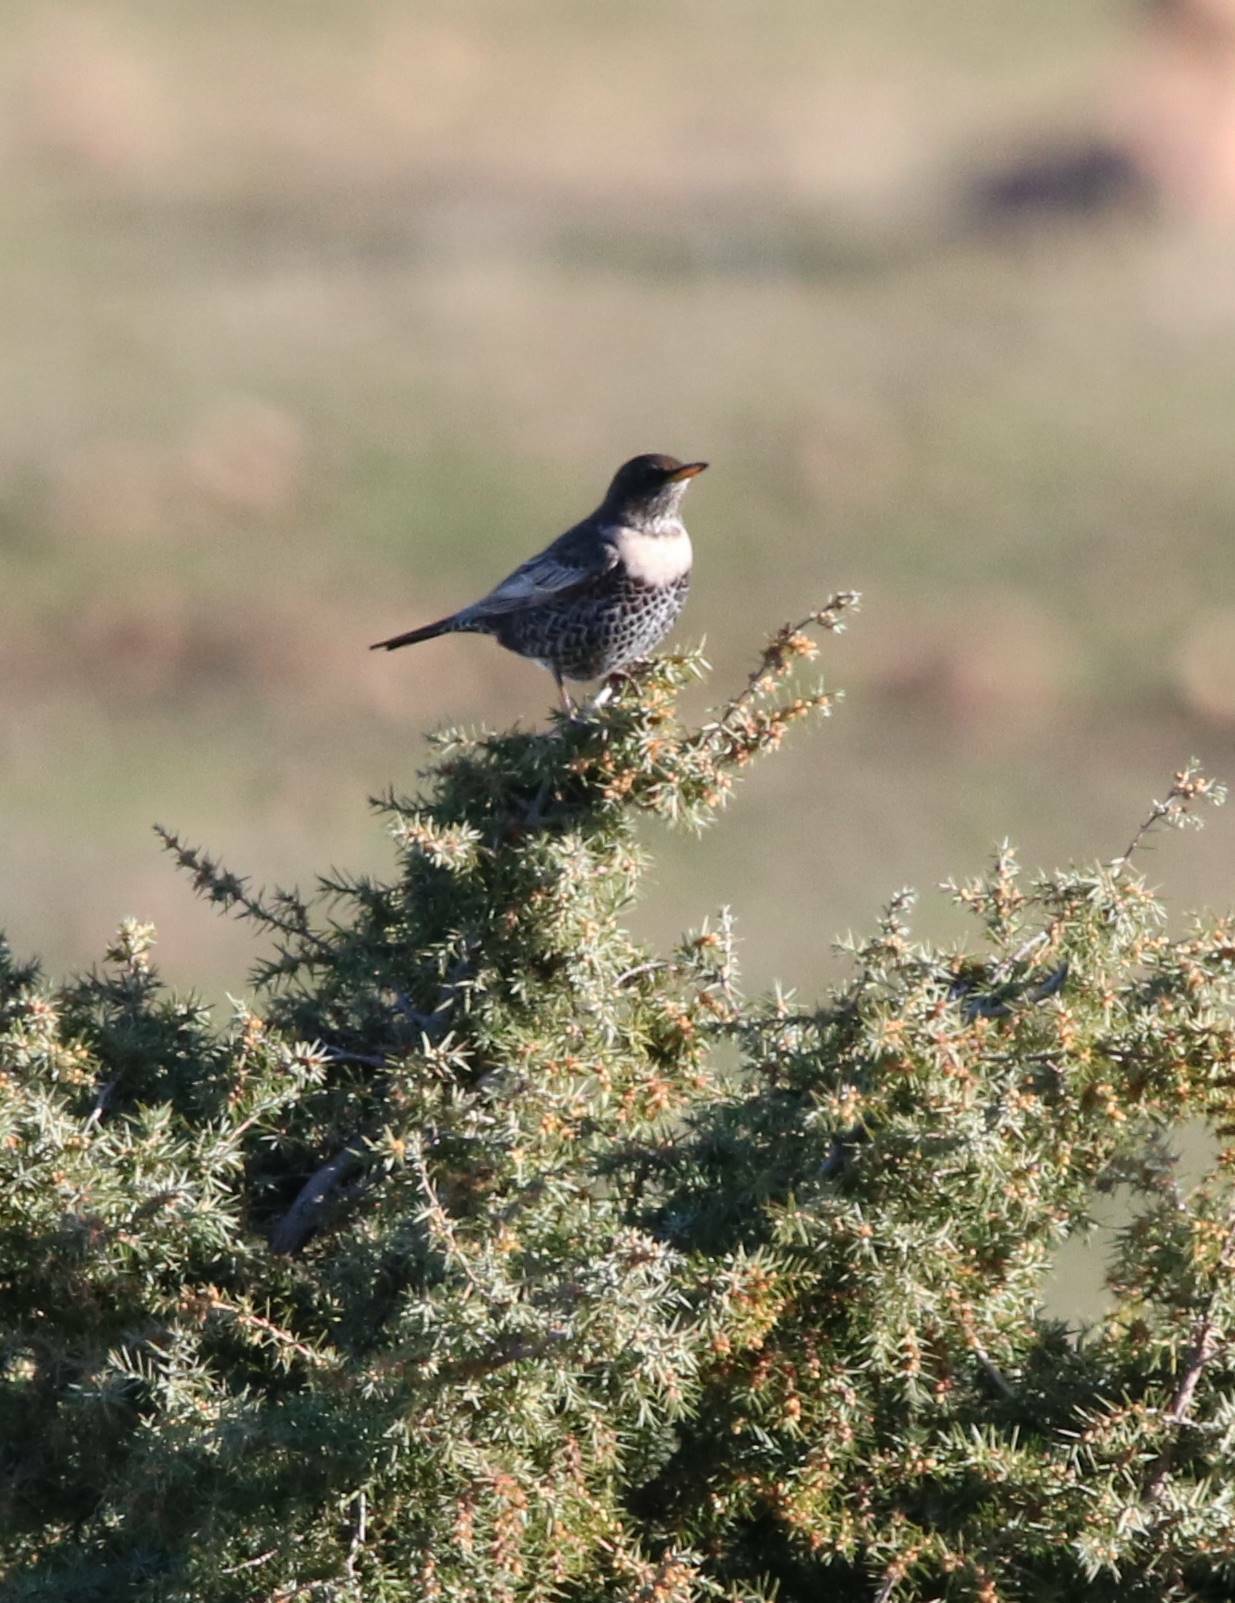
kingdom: Animalia
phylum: Chordata
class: Aves
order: Passeriformes
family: Turdidae
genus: Turdus
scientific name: Turdus torquatus
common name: Ring ouzel
